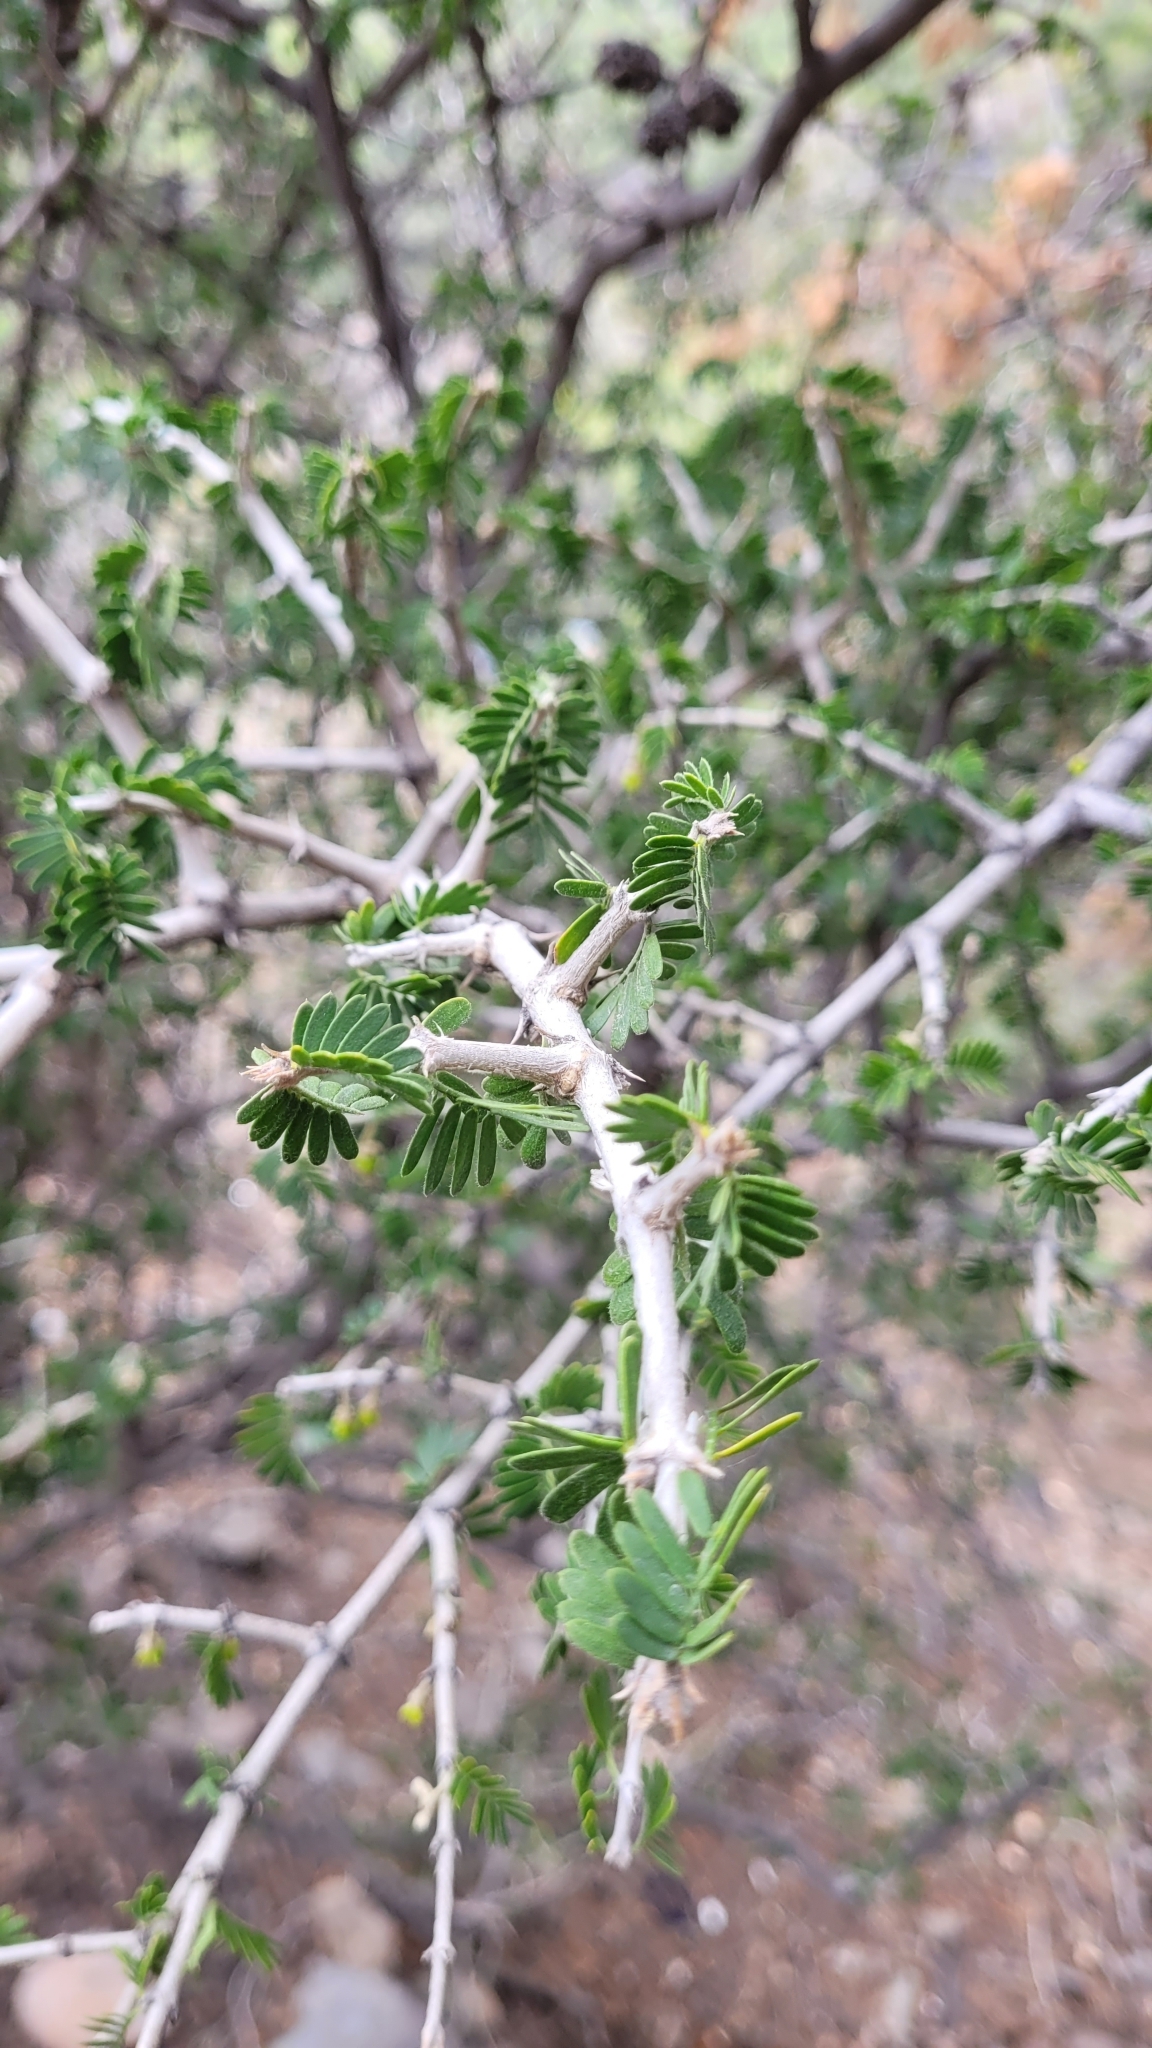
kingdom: Plantae
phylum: Tracheophyta
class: Magnoliopsida
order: Zygophyllales
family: Zygophyllaceae
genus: Porlieria
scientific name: Porlieria chilensis
